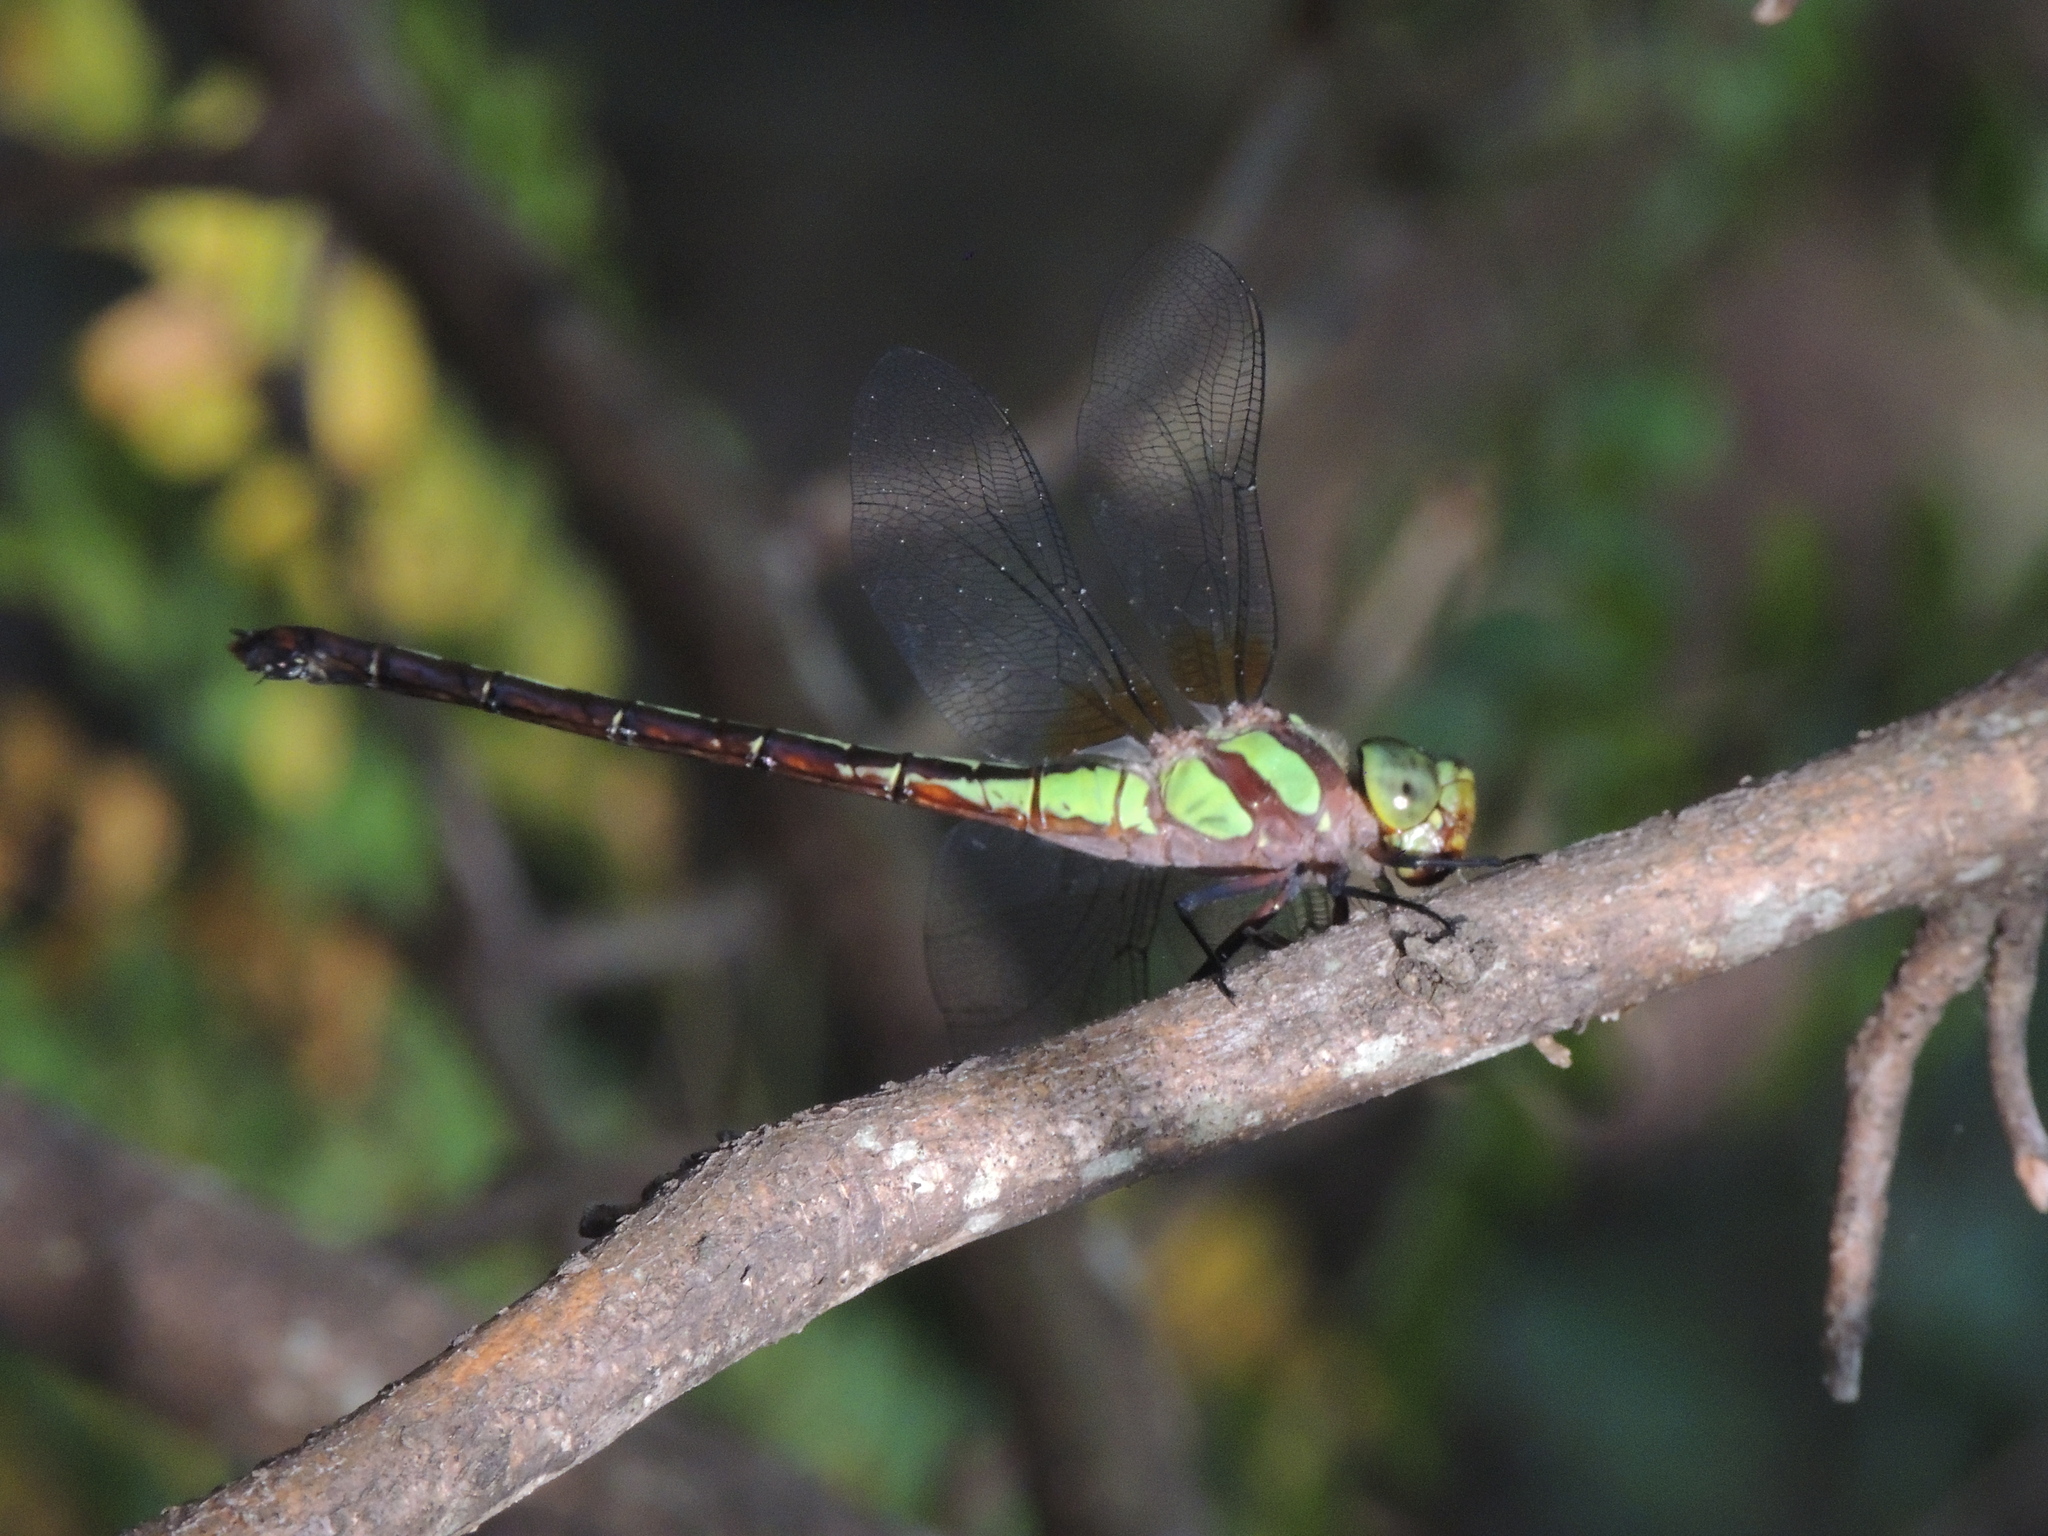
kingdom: Animalia
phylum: Arthropoda
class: Insecta
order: Odonata
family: Aeshnidae
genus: Remartinia
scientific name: Remartinia luteipennis
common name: Malachite darner
